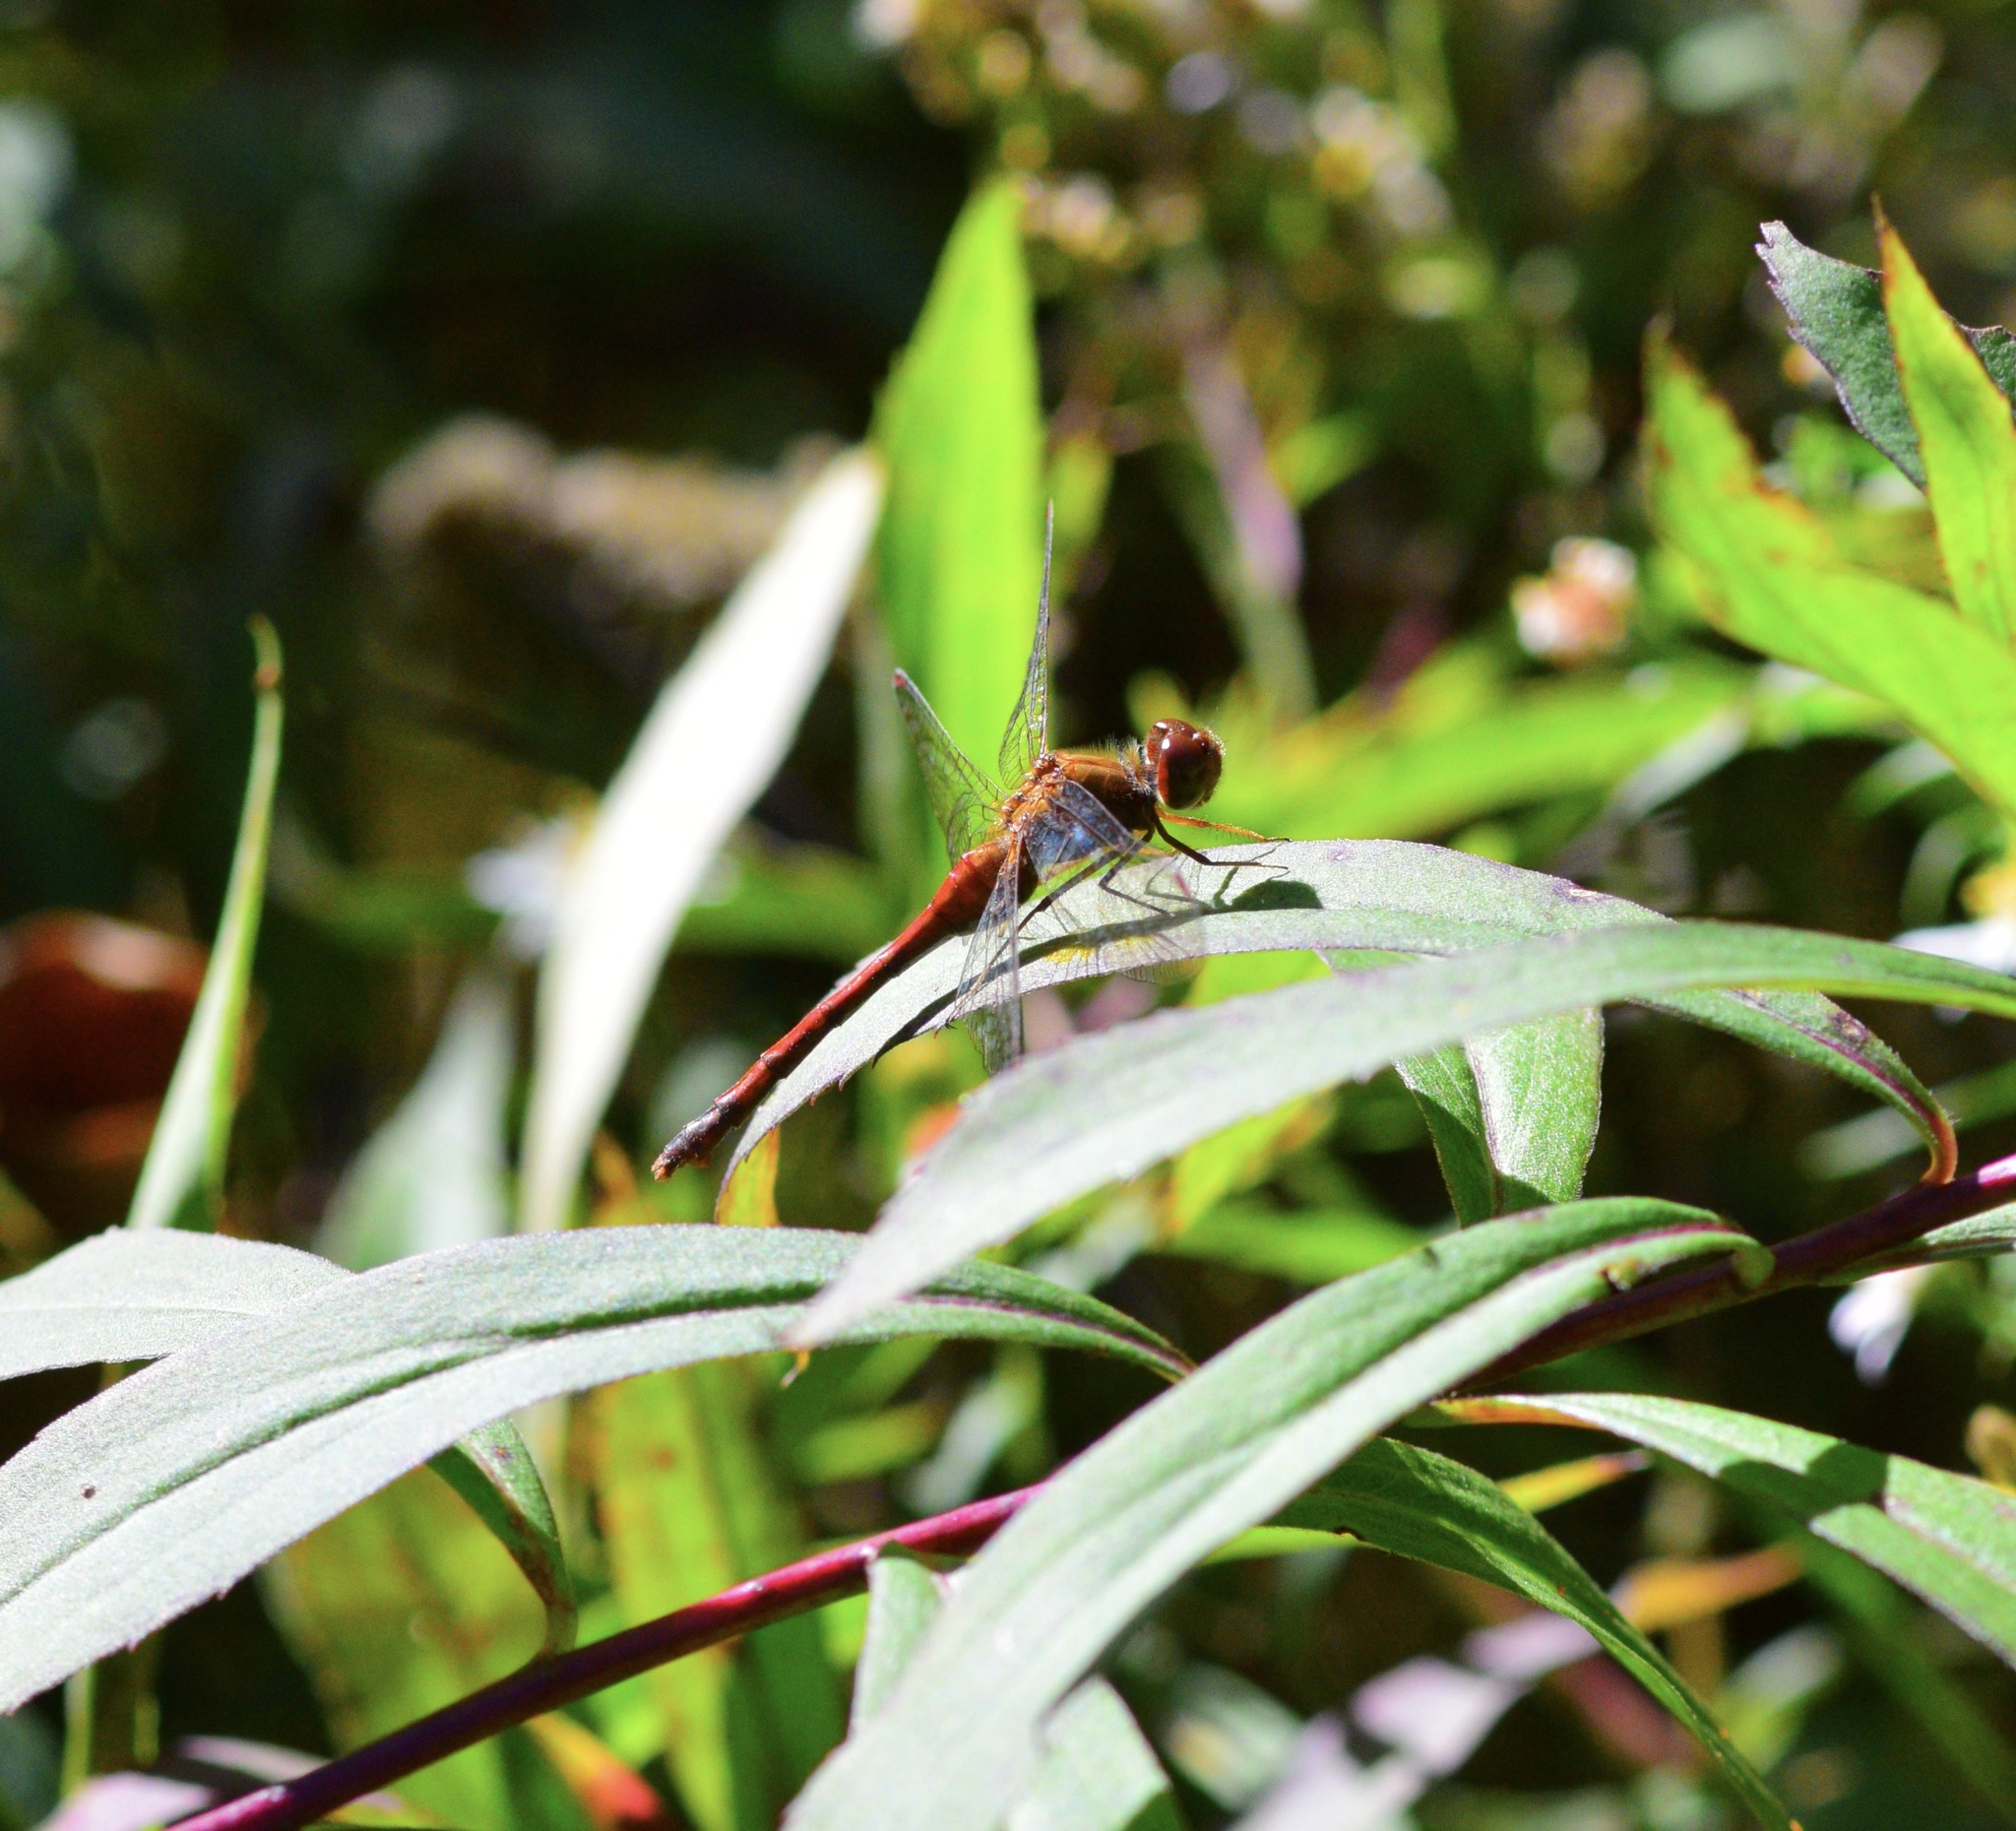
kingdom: Animalia
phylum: Arthropoda
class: Insecta
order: Odonata
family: Libellulidae
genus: Sympetrum
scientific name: Sympetrum vicinum
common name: Autumn meadowhawk
